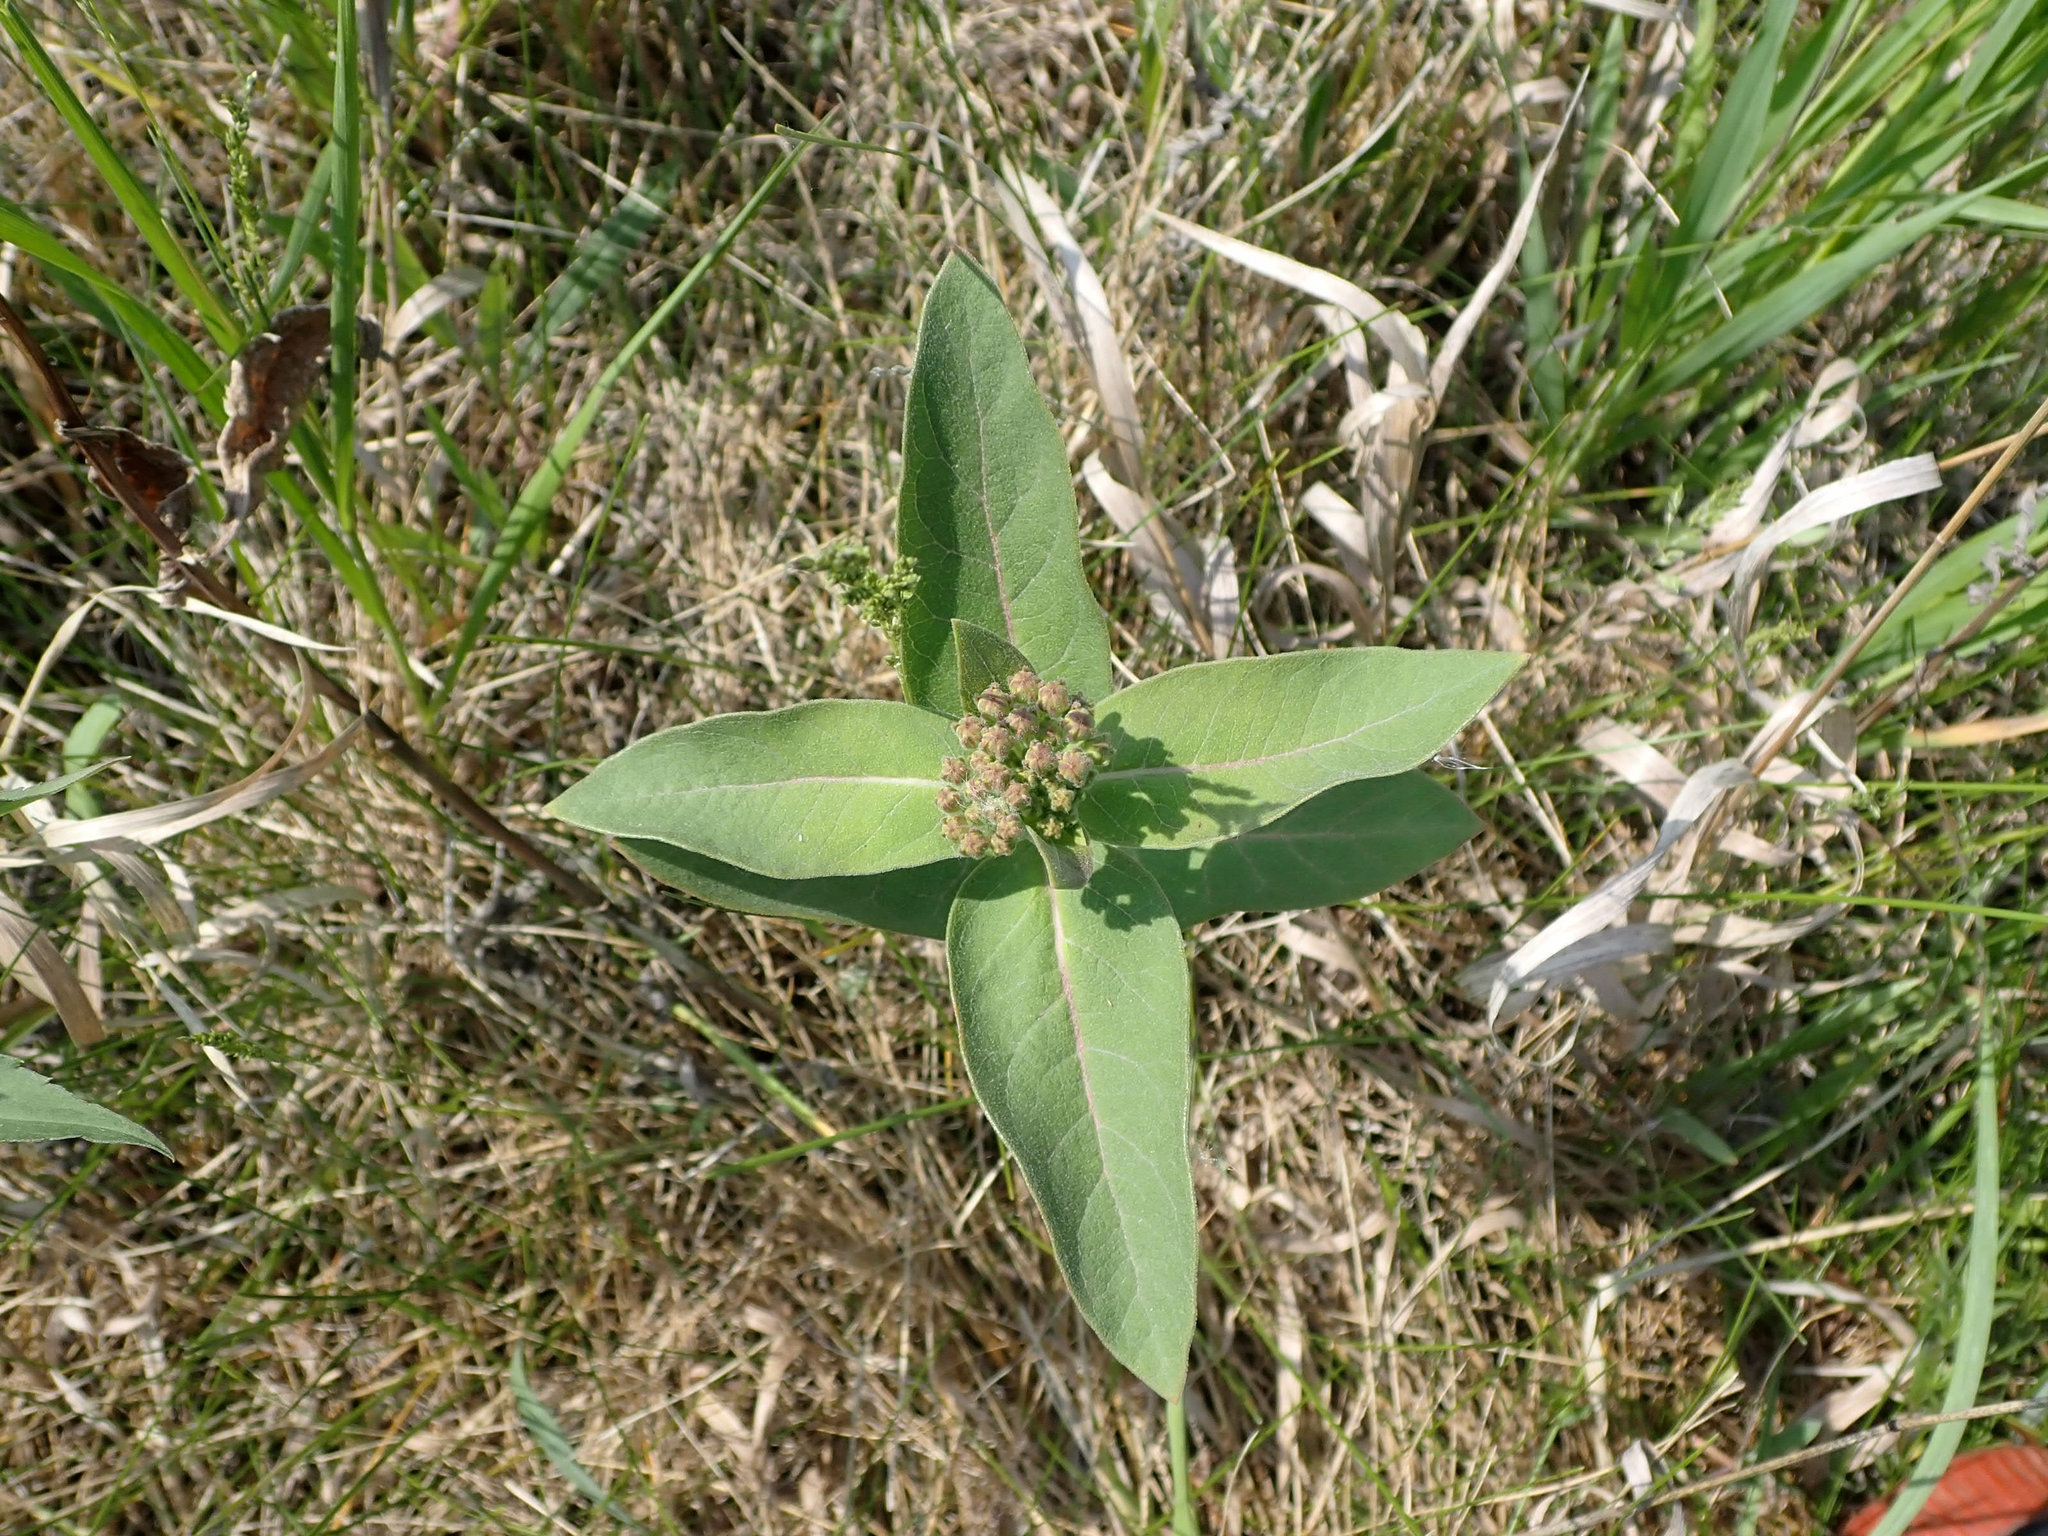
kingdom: Plantae
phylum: Tracheophyta
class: Magnoliopsida
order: Gentianales
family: Apocynaceae
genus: Asclepias
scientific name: Asclepias syriaca
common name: Common milkweed
